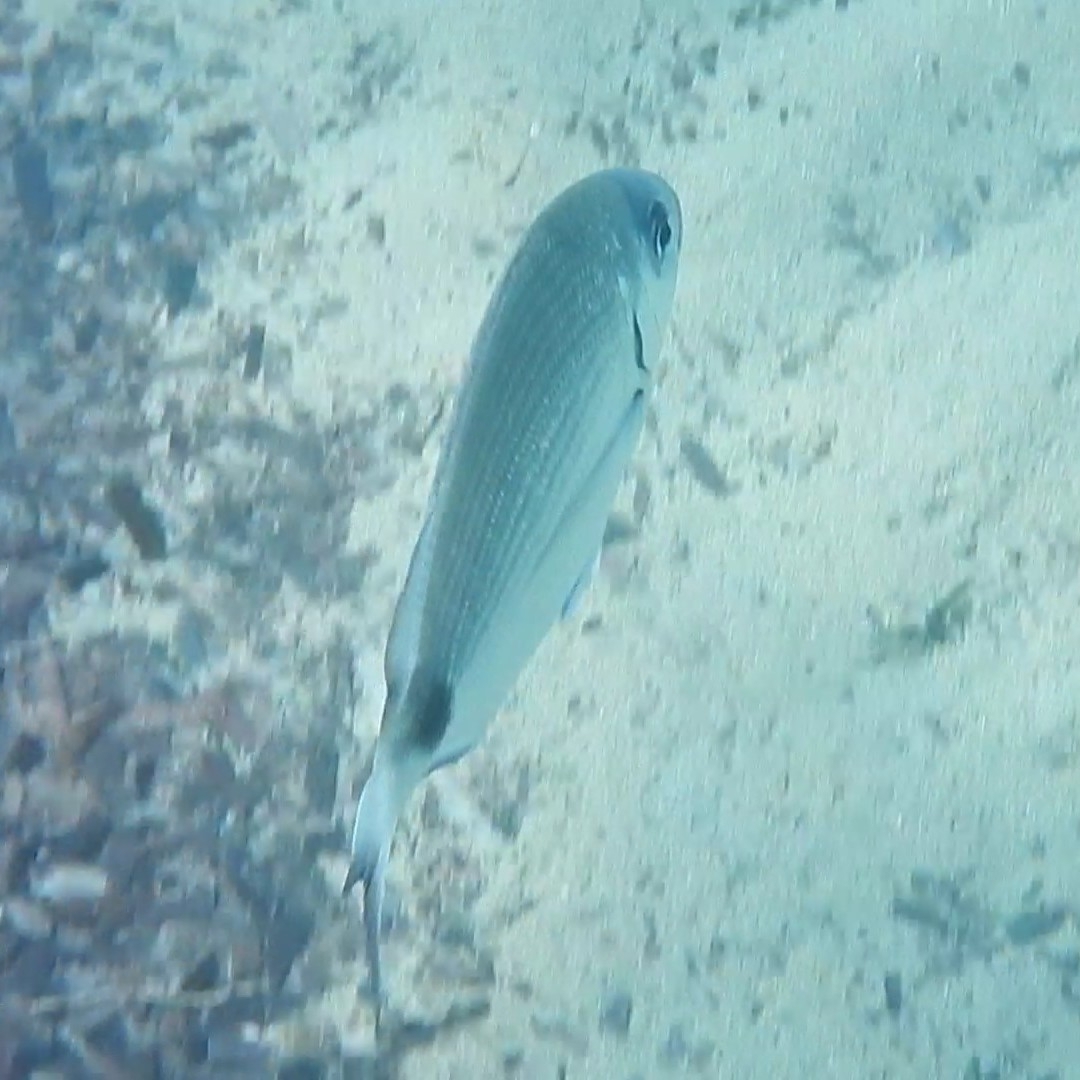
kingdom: Animalia
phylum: Chordata
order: Perciformes
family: Sparidae
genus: Diplodus
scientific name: Diplodus sargus
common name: White seabream
